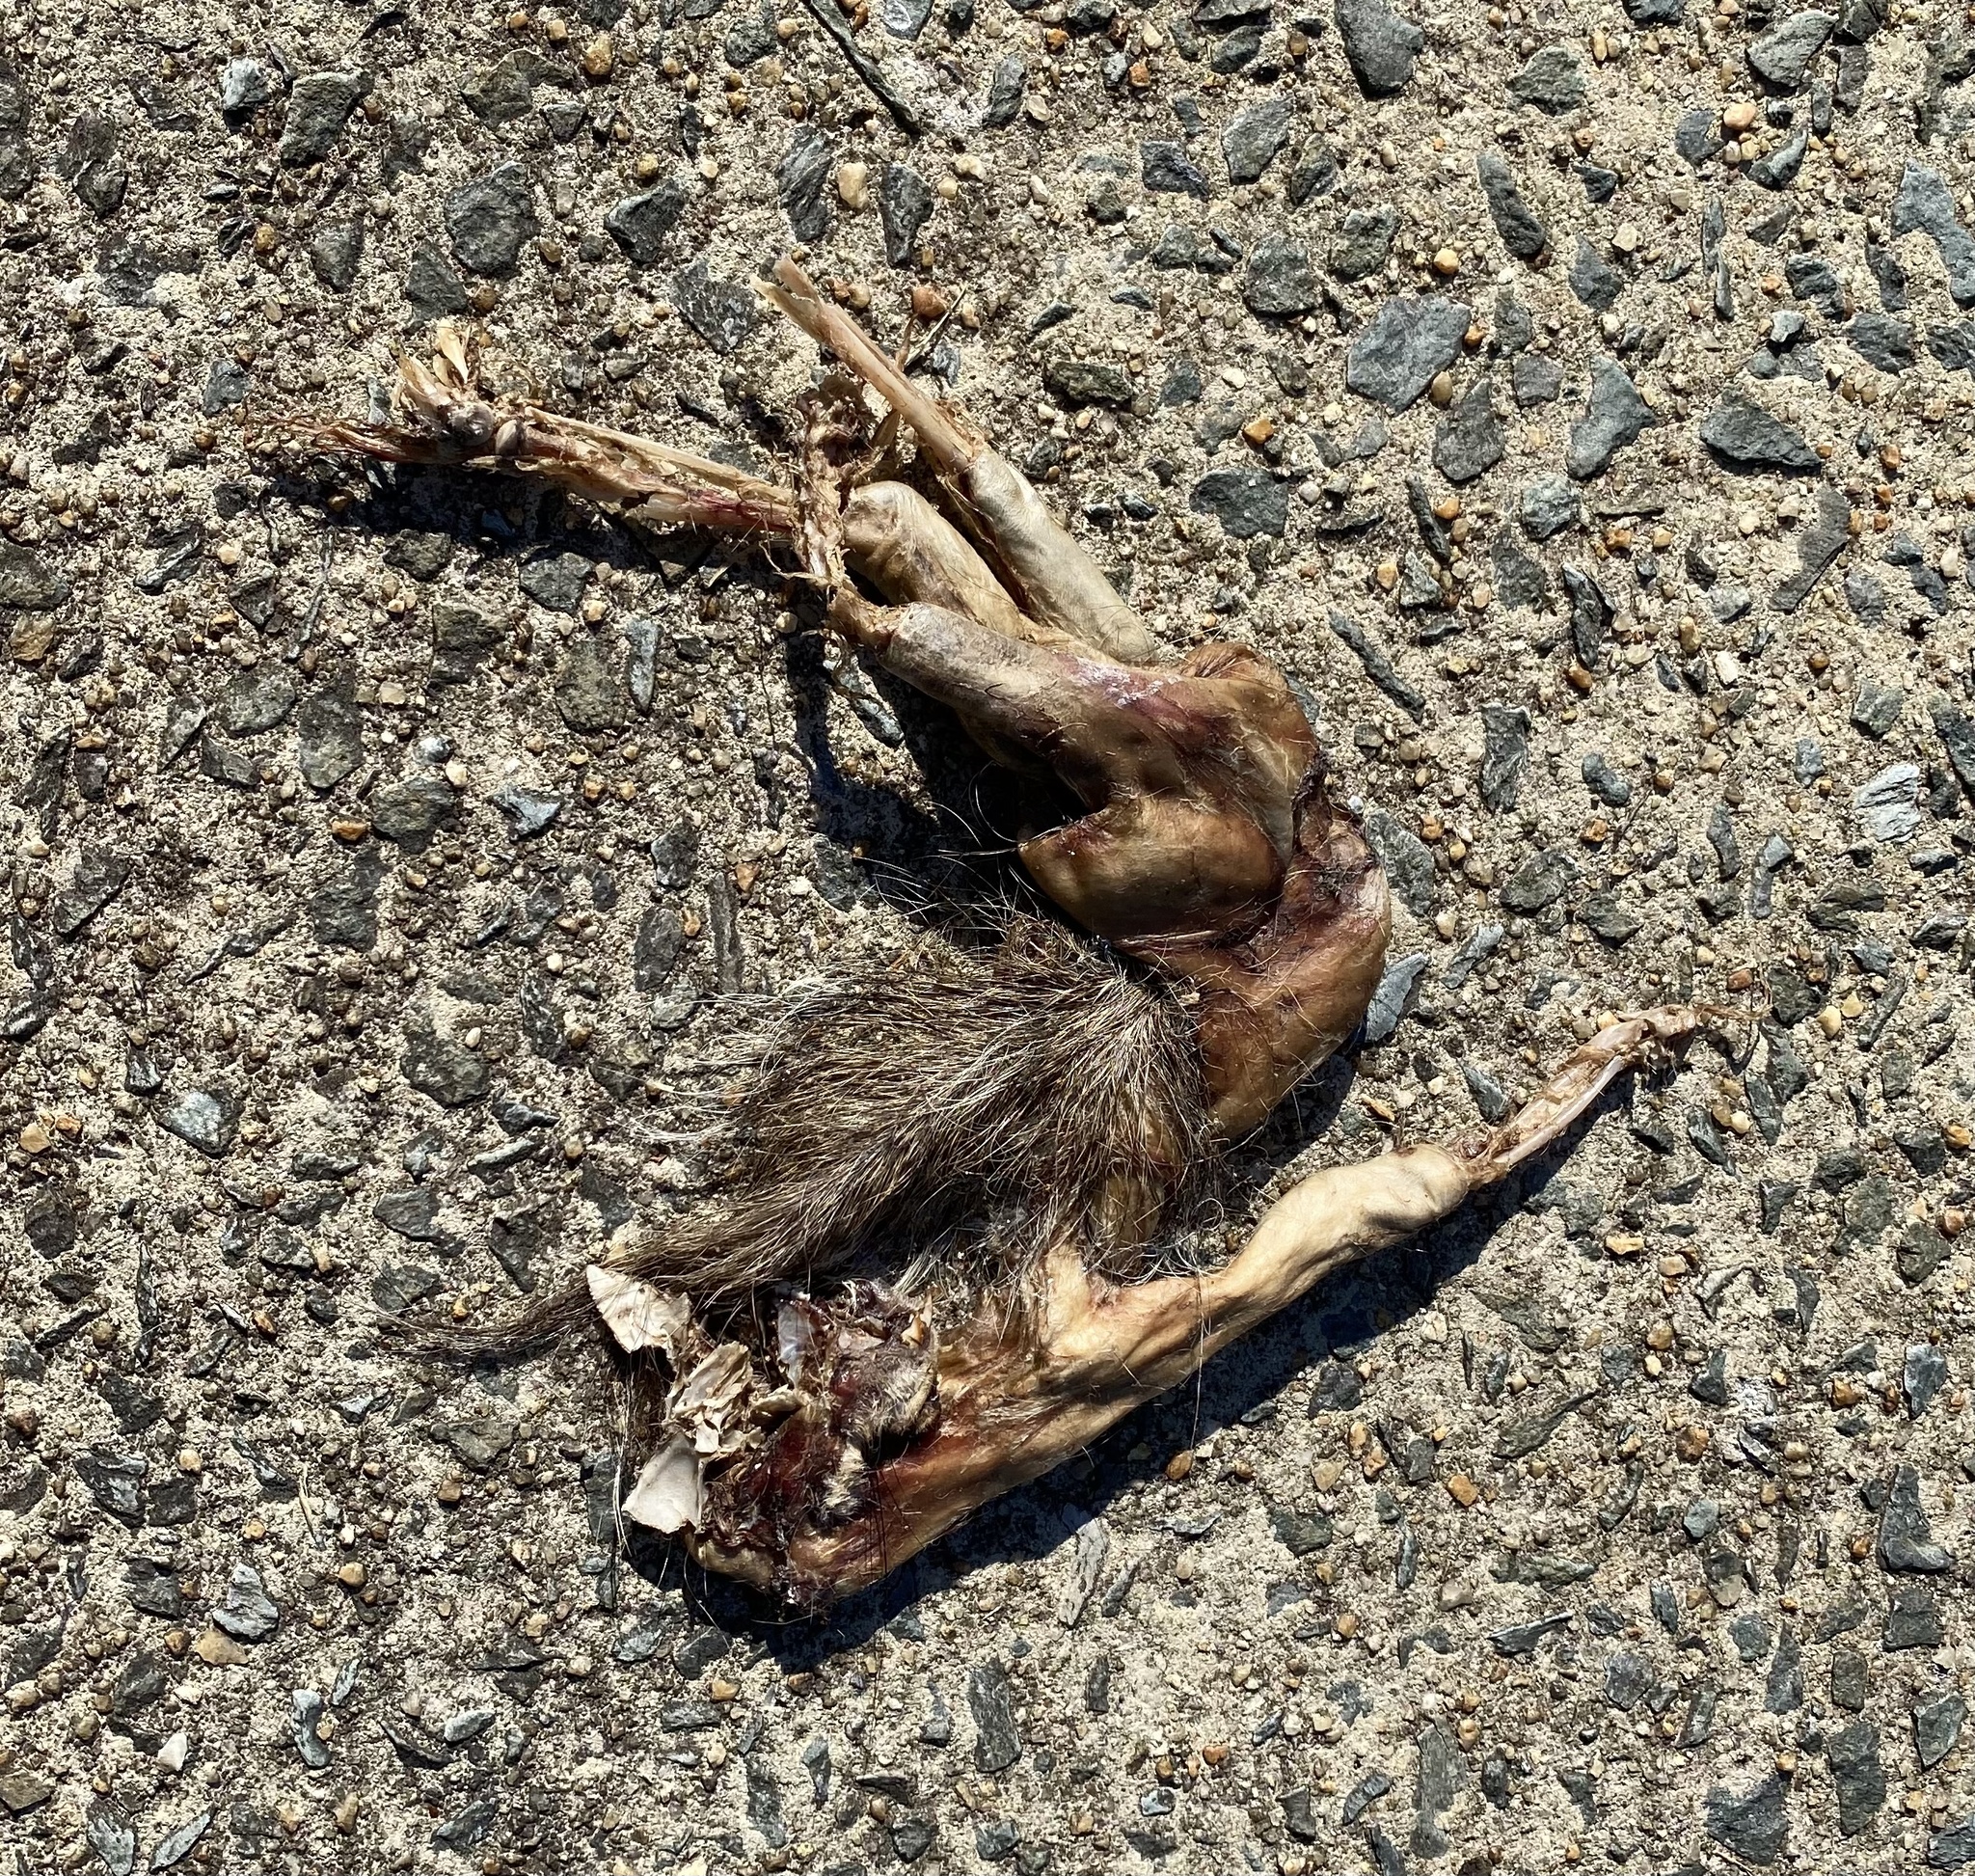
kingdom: Animalia
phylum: Chordata
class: Mammalia
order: Rodentia
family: Sciuridae
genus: Sciurus
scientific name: Sciurus carolinensis
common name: Eastern gray squirrel
